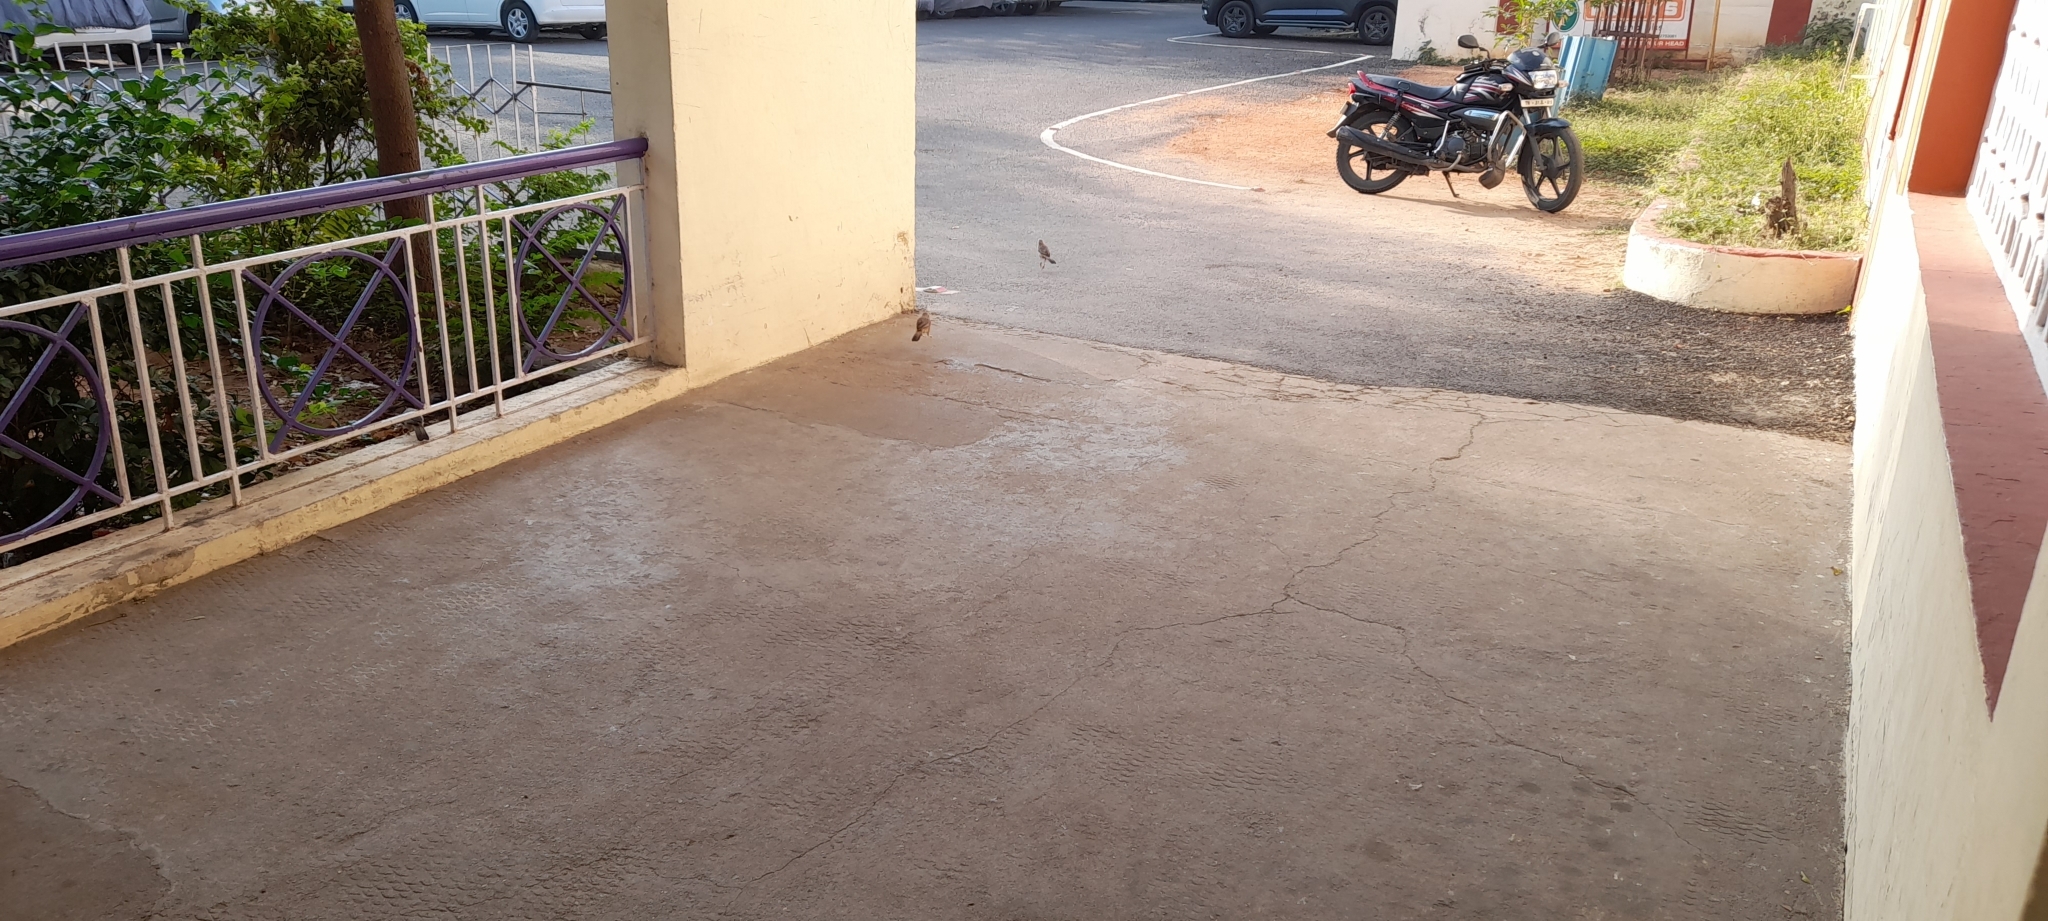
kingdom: Animalia
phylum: Chordata
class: Aves
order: Passeriformes
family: Leiothrichidae
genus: Turdoides
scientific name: Turdoides affinis
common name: Yellow-billed babbler
